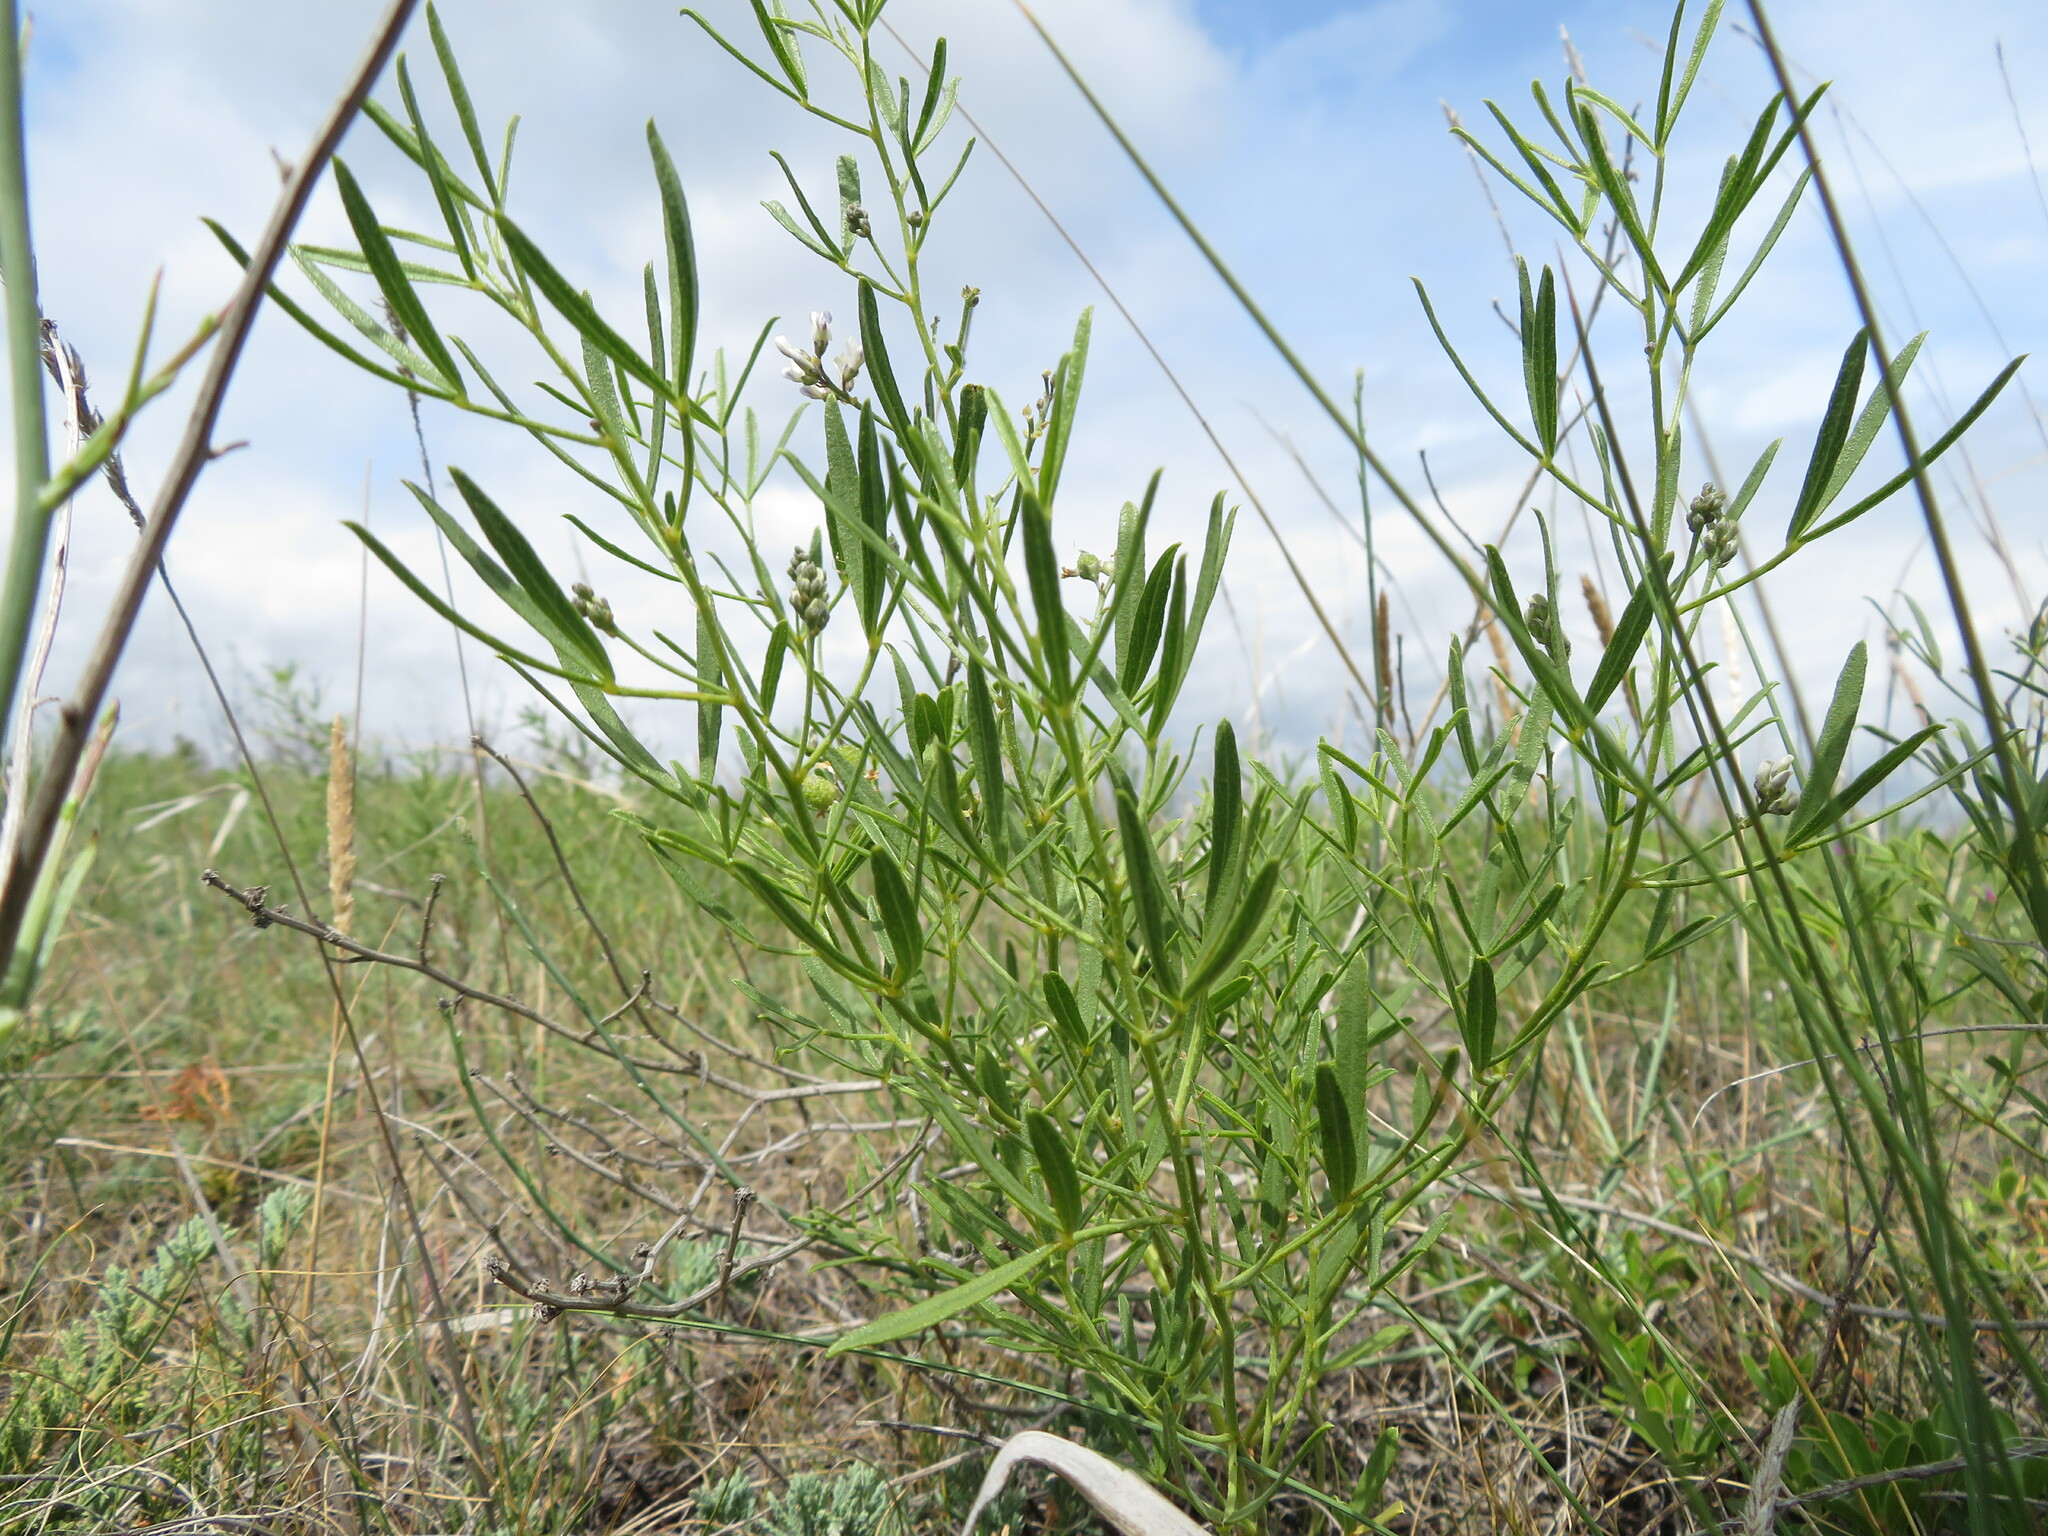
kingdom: Plantae
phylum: Tracheophyta
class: Magnoliopsida
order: Fabales
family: Fabaceae
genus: Ladeania
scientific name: Ladeania lanceolata
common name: Dune scurf-pea
